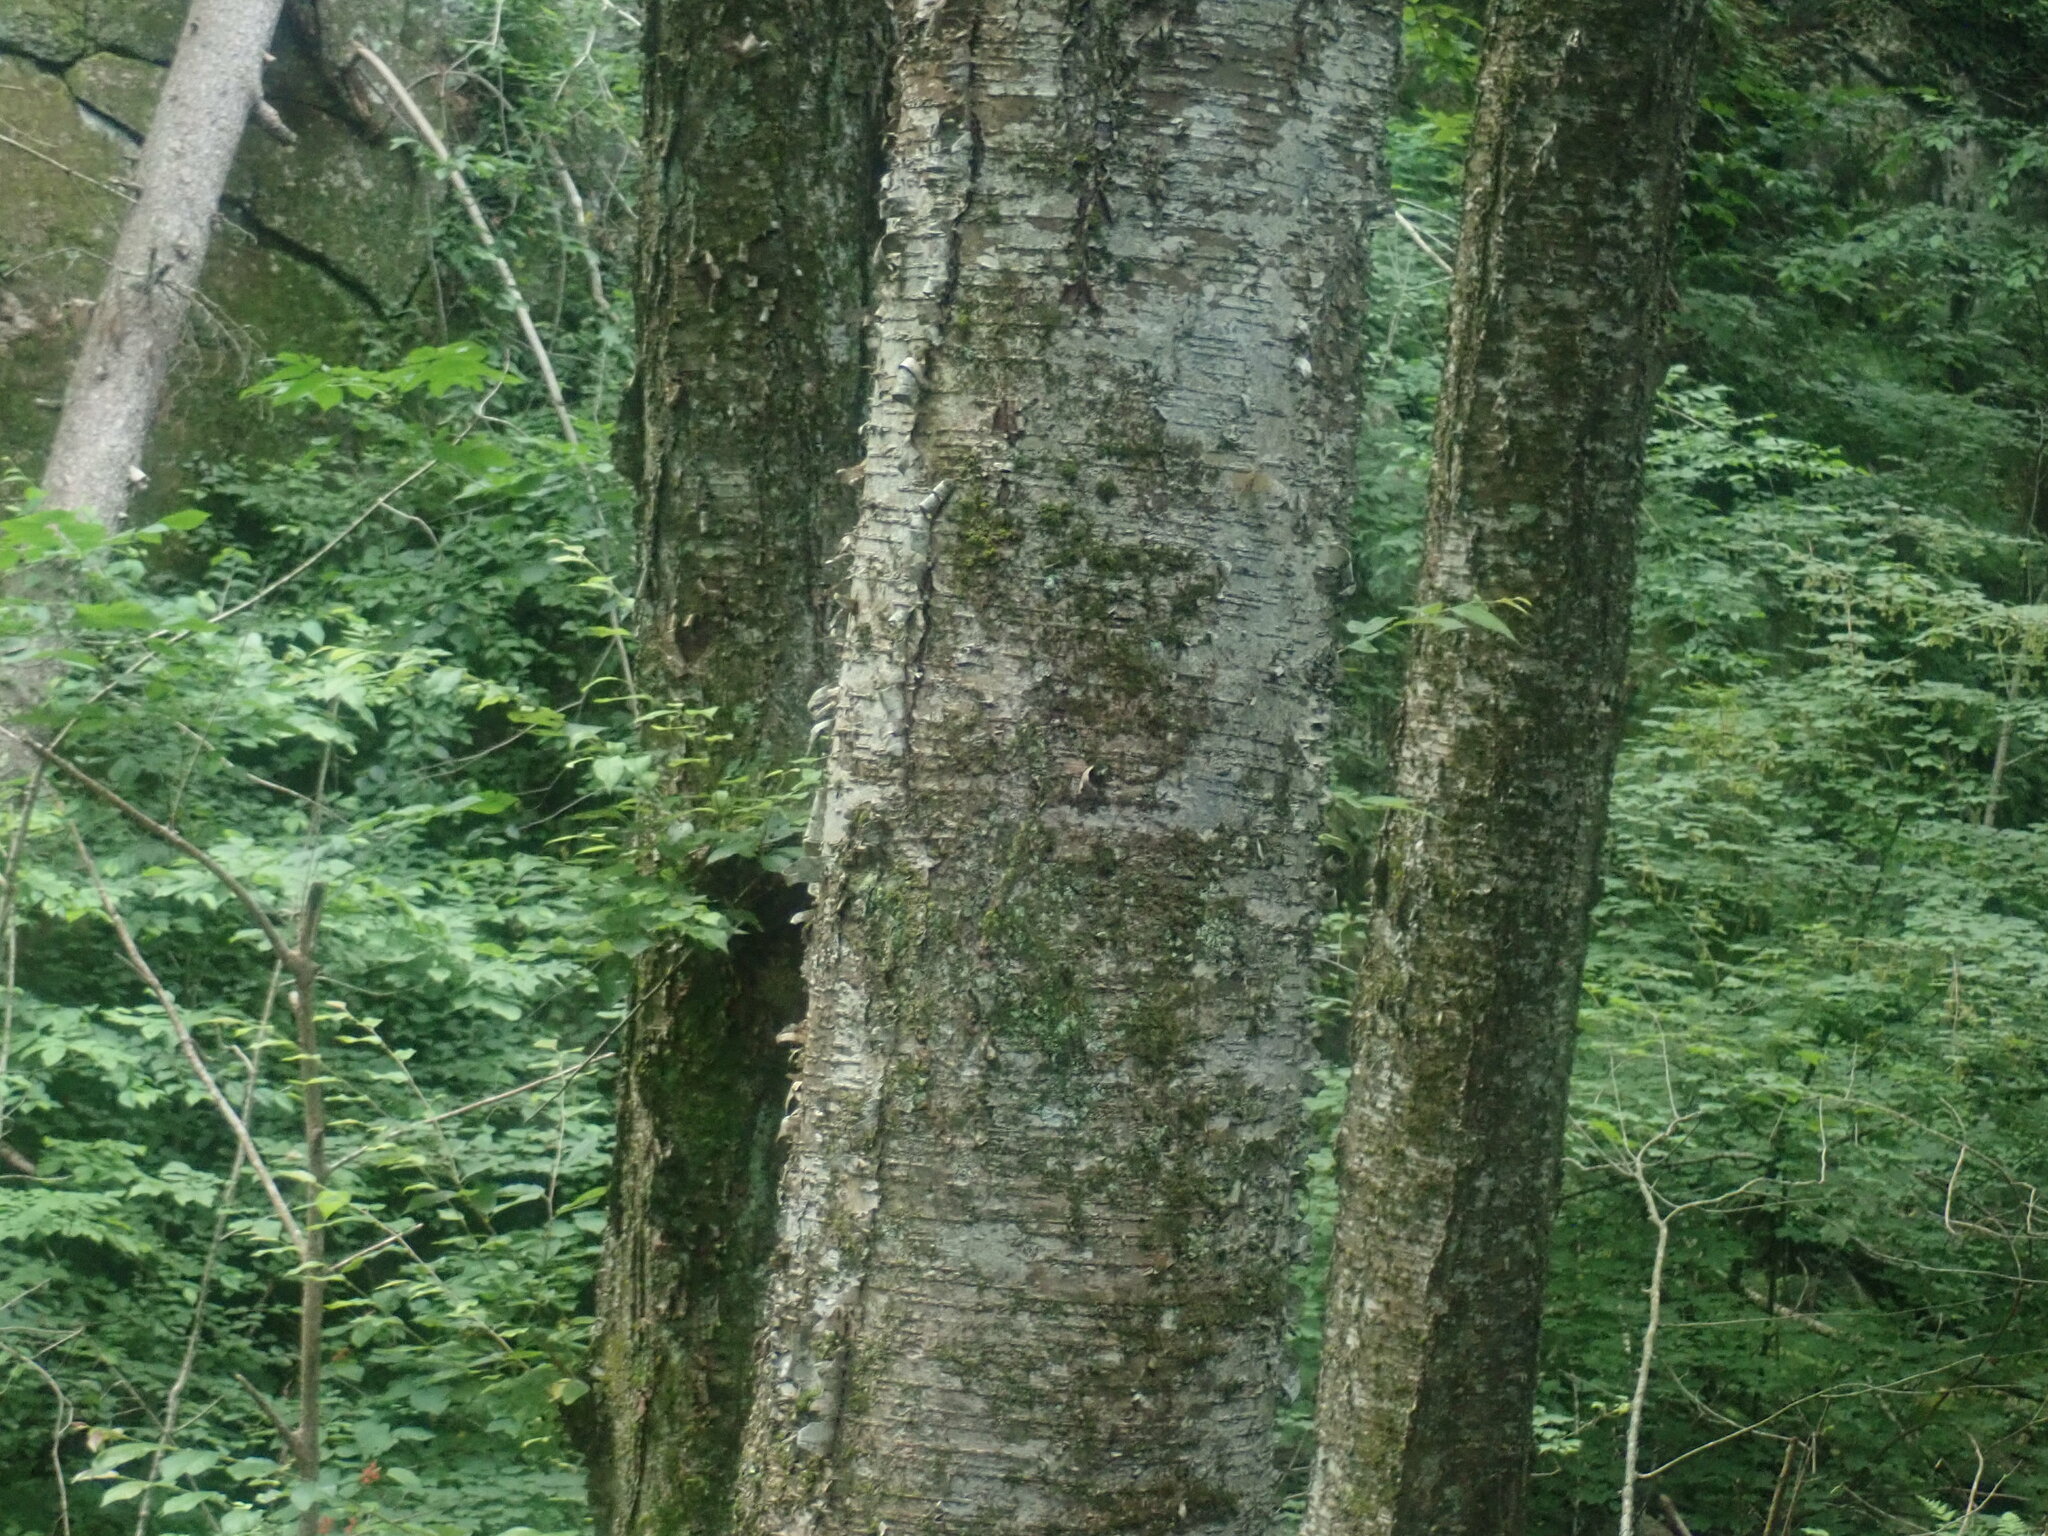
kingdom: Plantae
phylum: Tracheophyta
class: Magnoliopsida
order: Fagales
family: Betulaceae
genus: Betula
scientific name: Betula alleghaniensis
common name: Yellow birch
